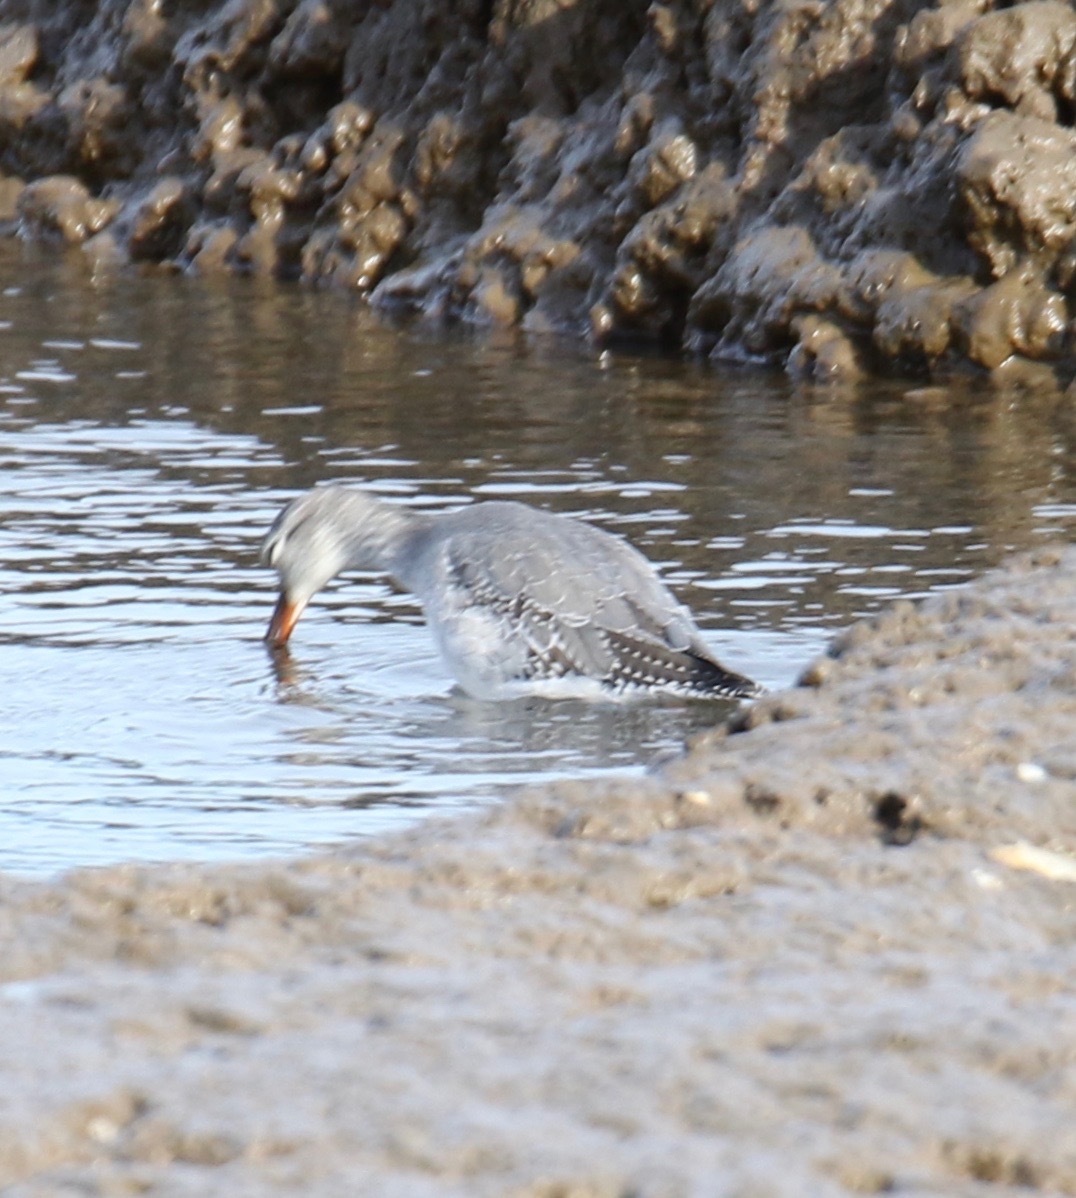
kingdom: Animalia
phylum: Chordata
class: Aves
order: Charadriiformes
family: Scolopacidae
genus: Tringa
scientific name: Tringa erythropus
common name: Spotted redshank
